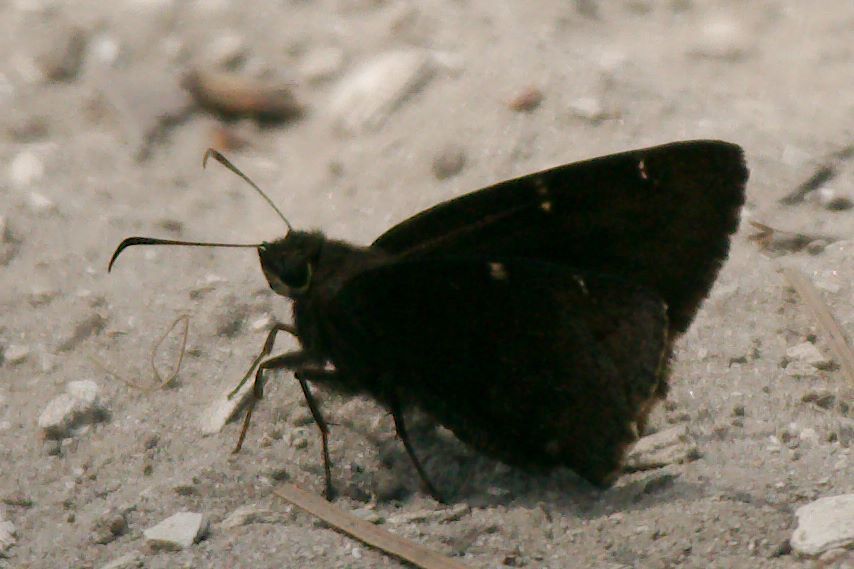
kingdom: Animalia
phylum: Arthropoda
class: Insecta
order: Lepidoptera
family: Hesperiidae
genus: Thorybes
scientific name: Thorybes mexicana
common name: Mexican cloudywing
